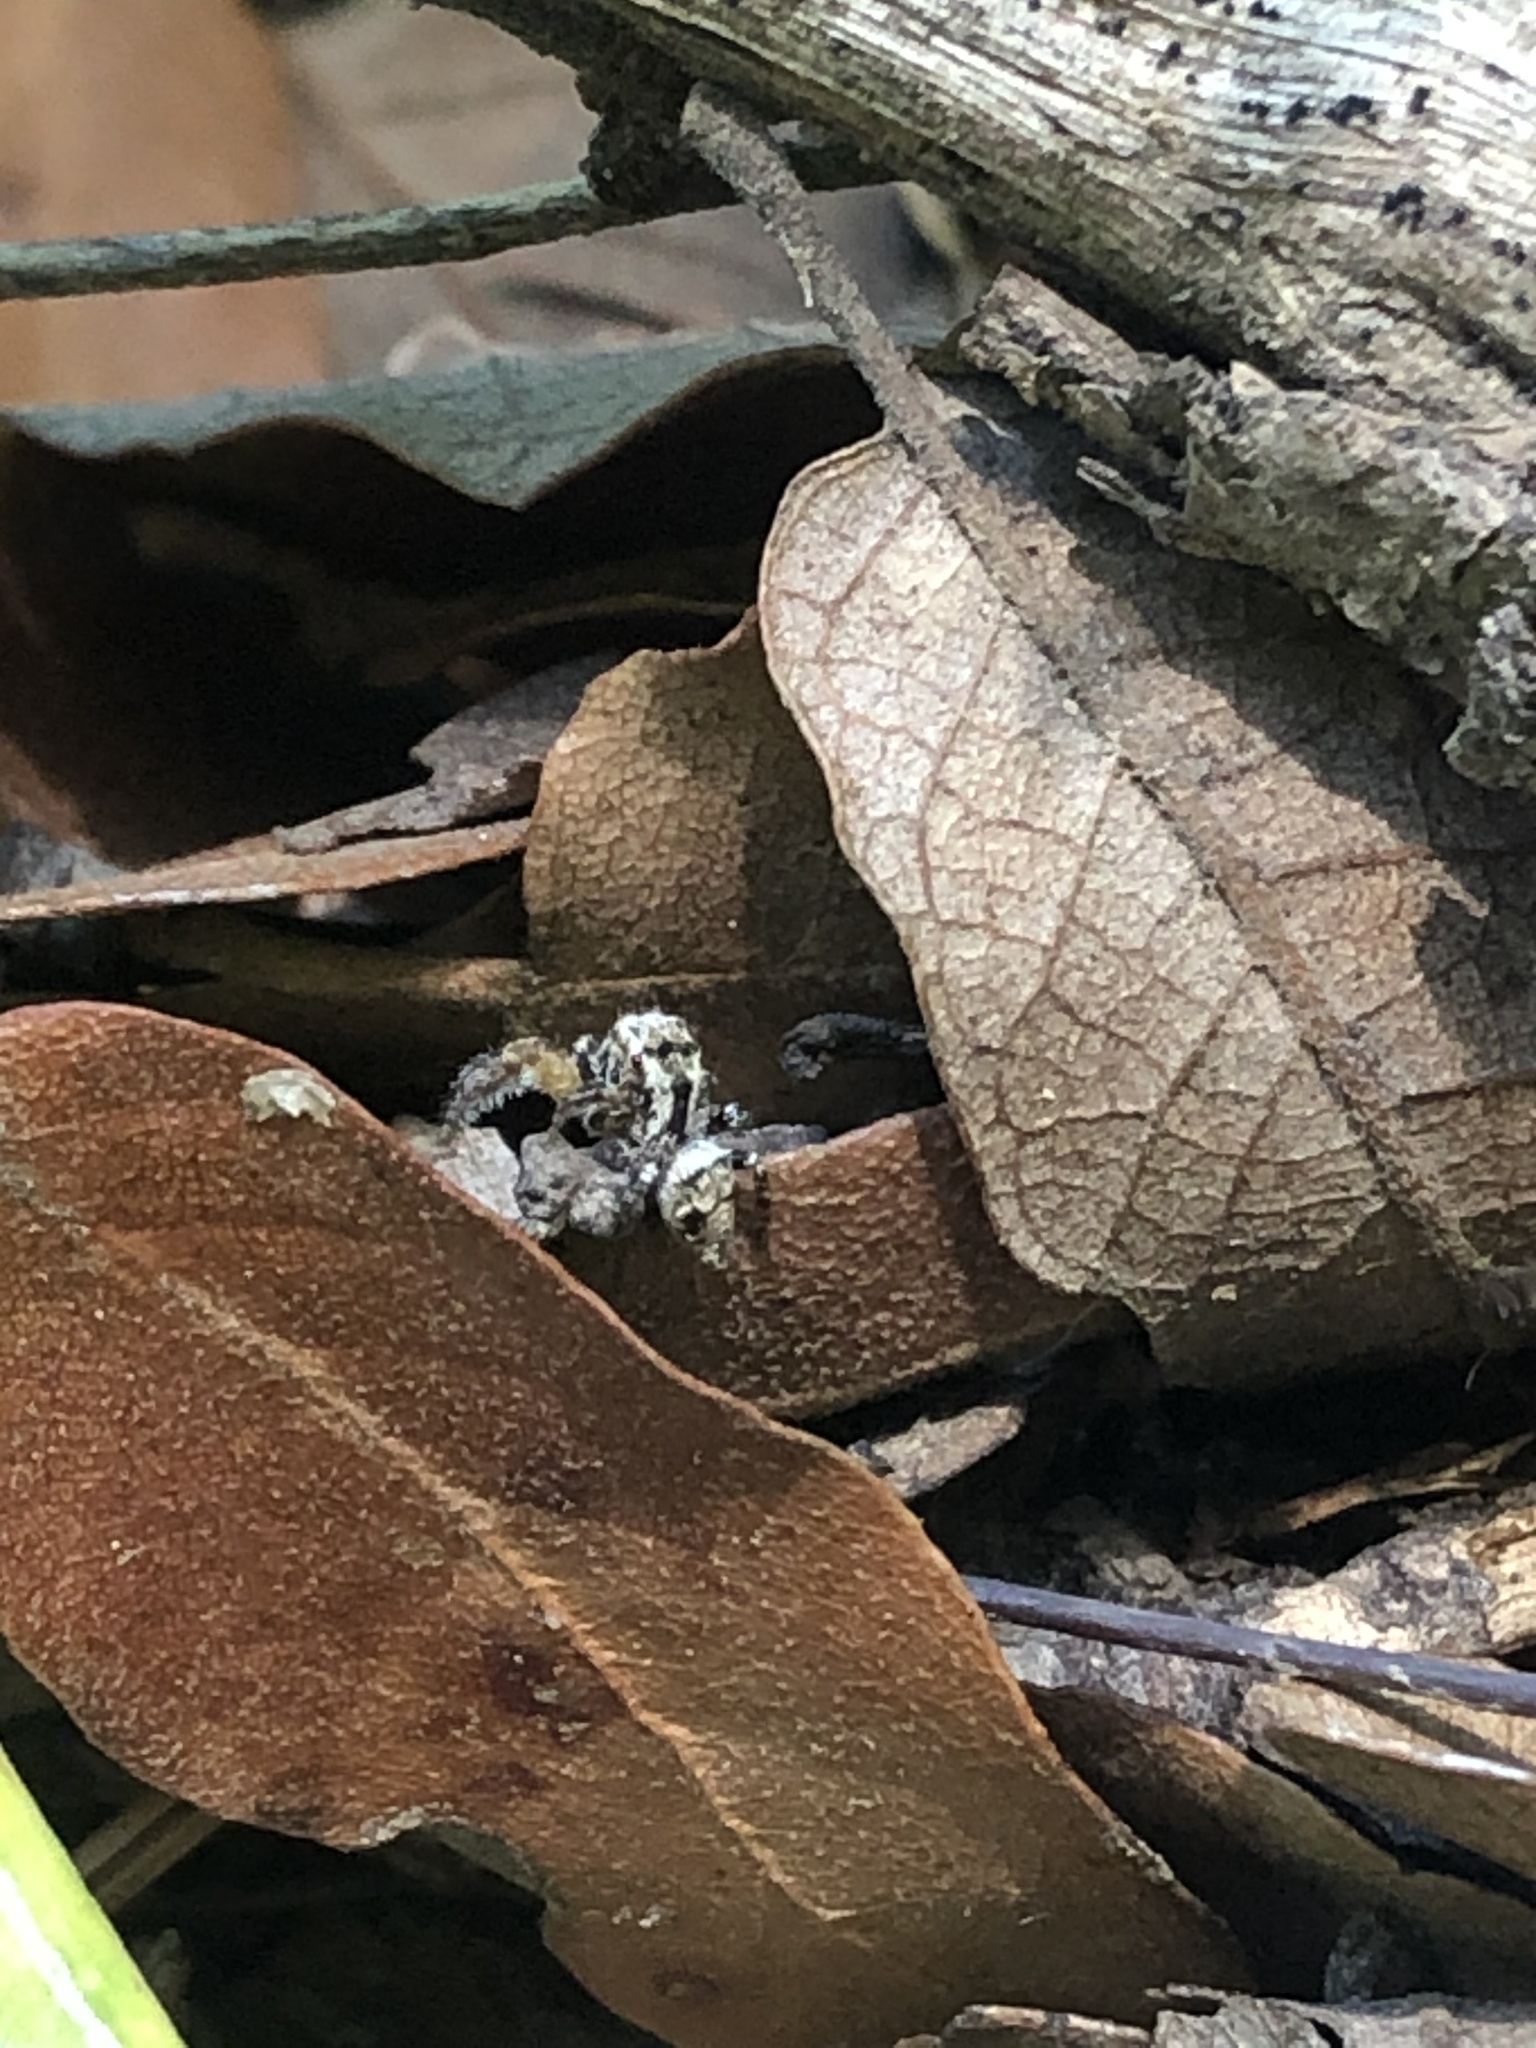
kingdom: Animalia
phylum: Arthropoda
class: Arachnida
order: Araneae
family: Salticidae
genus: Habronattus
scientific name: Habronattus geronimoi
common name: Jumping spiders
